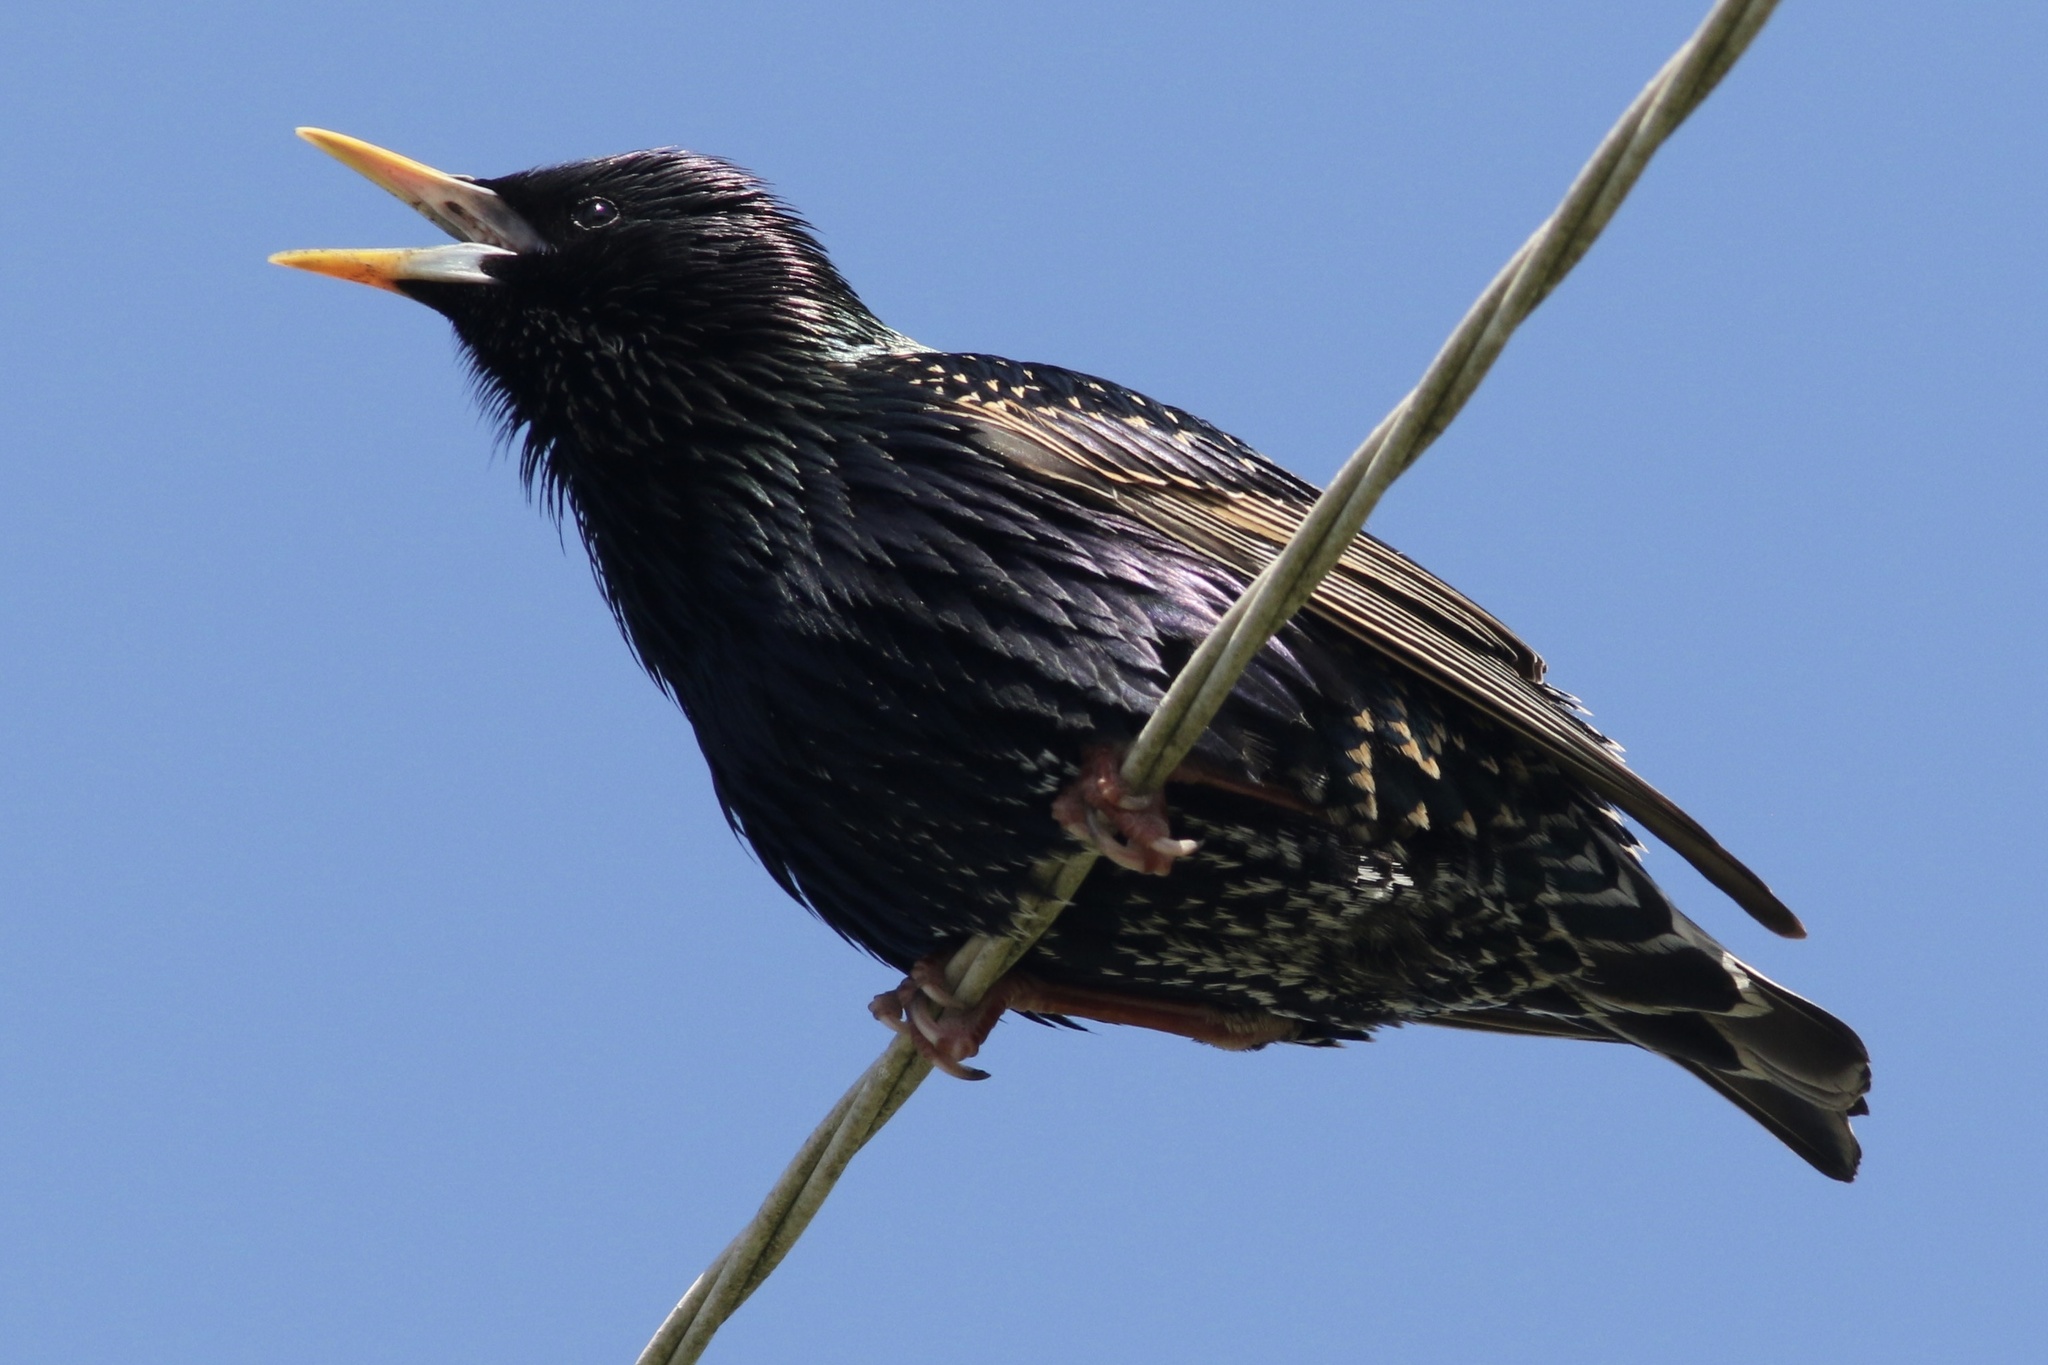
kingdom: Animalia
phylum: Chordata
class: Aves
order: Passeriformes
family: Sturnidae
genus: Sturnus
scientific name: Sturnus vulgaris
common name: Common starling
